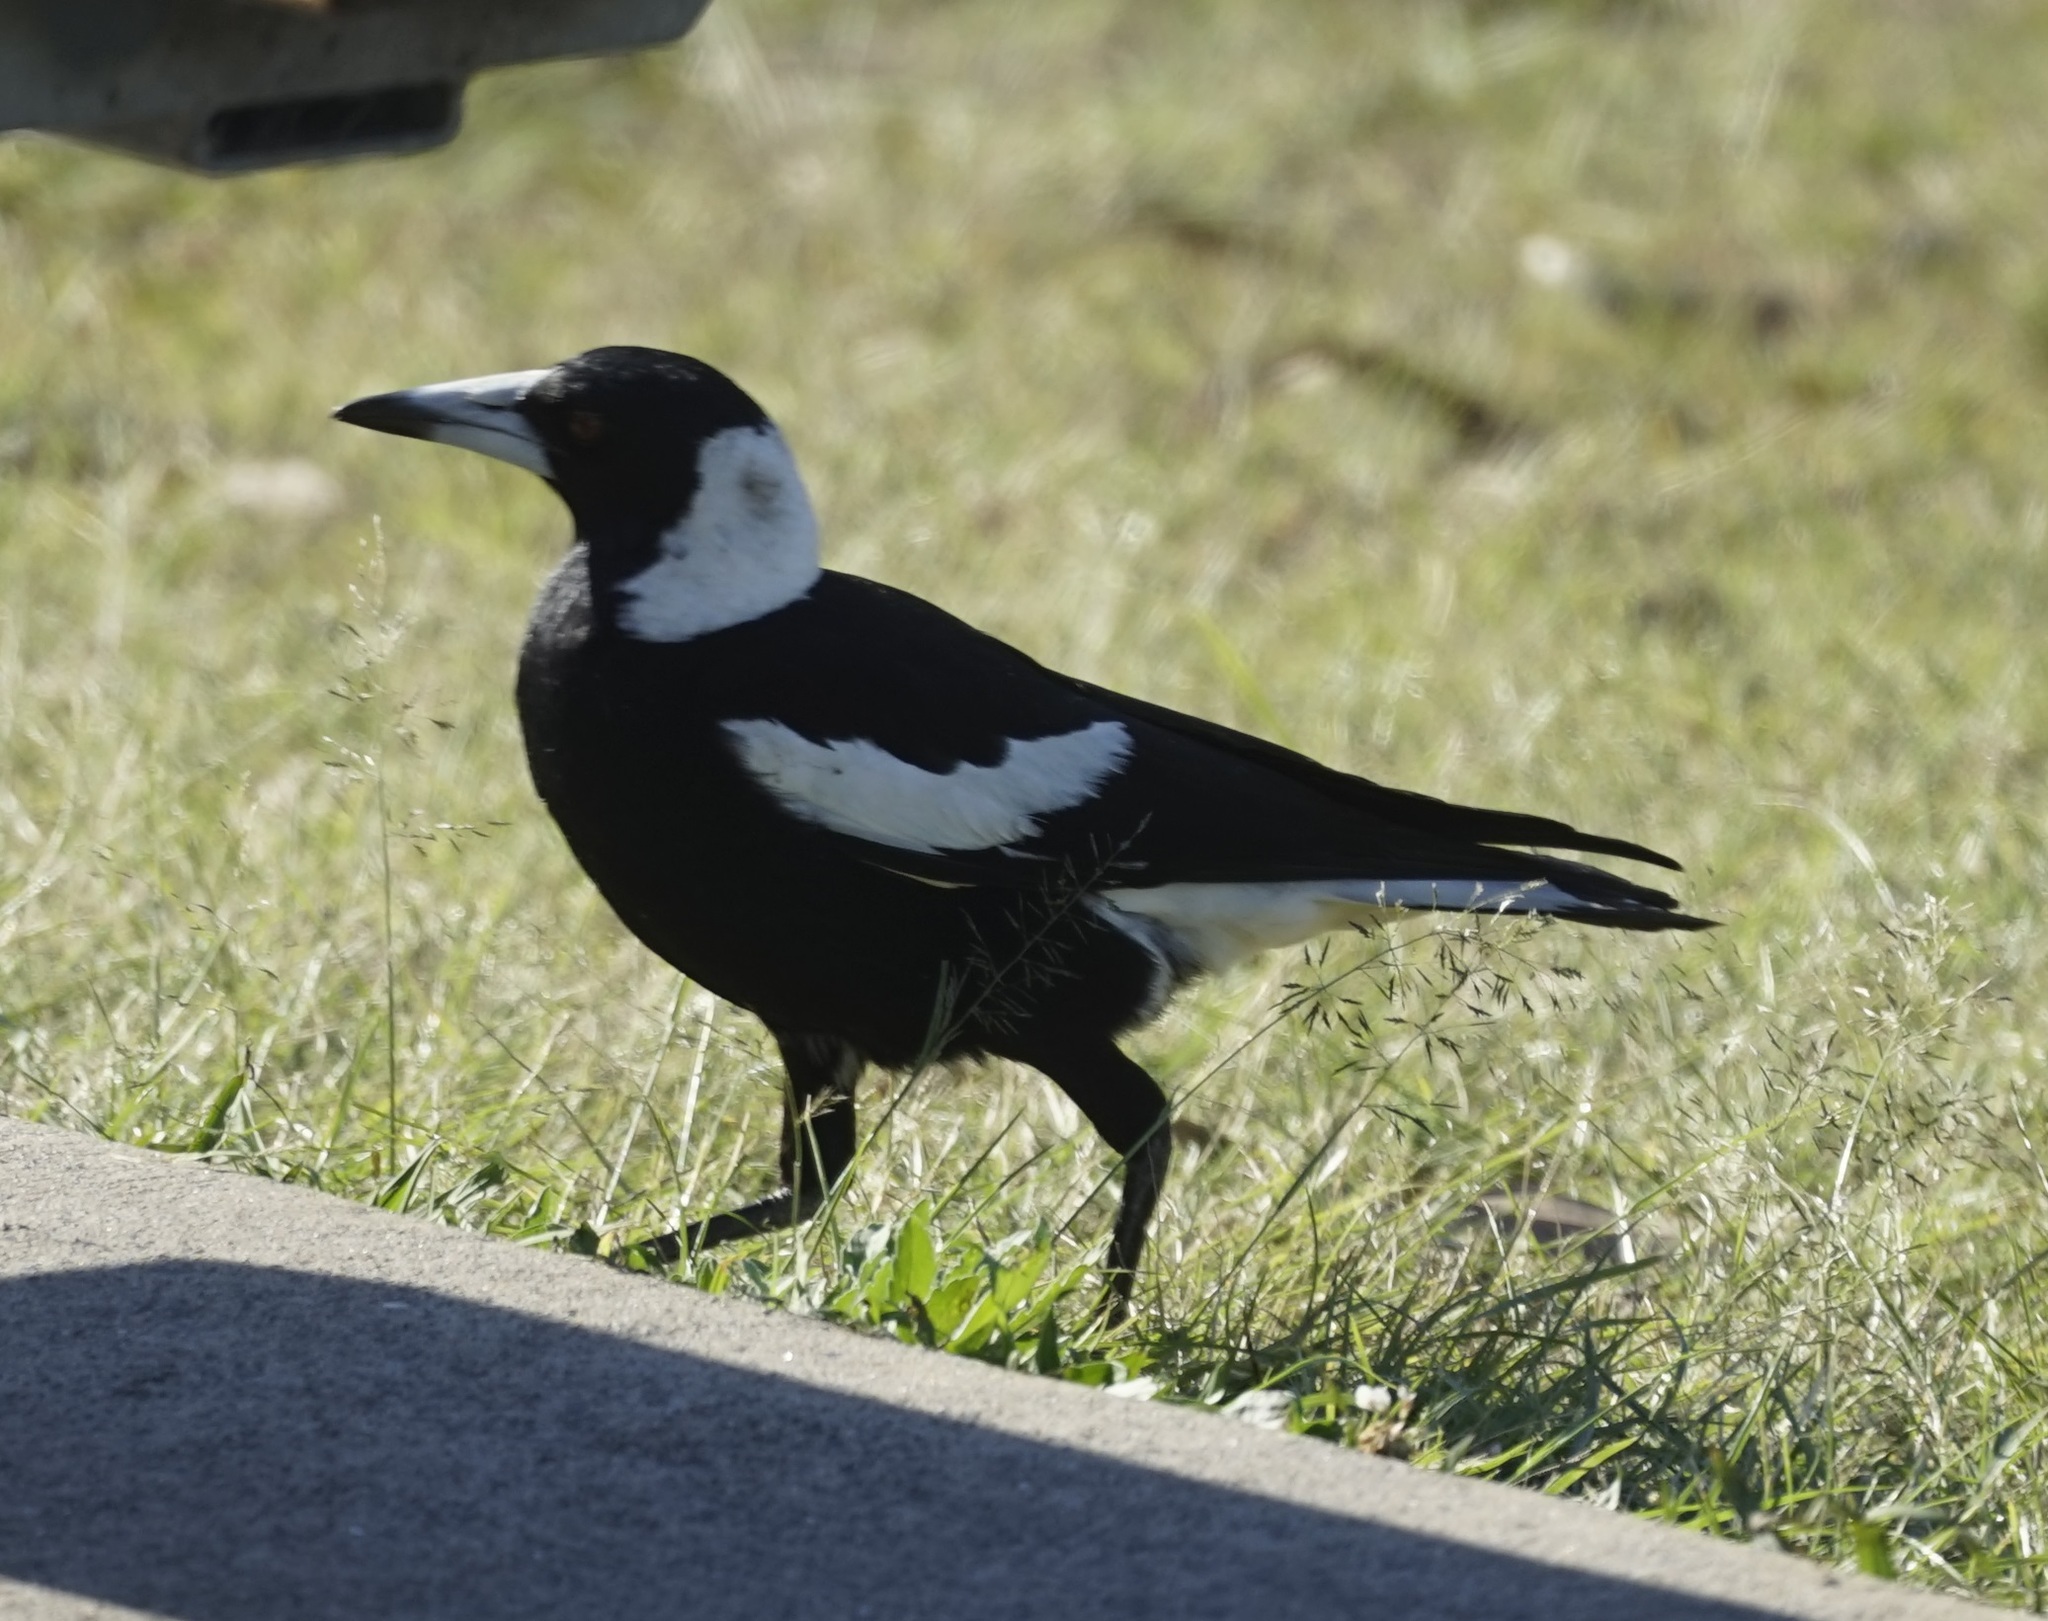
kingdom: Animalia
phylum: Chordata
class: Aves
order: Passeriformes
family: Cracticidae
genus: Gymnorhina
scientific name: Gymnorhina tibicen
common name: Australian magpie
